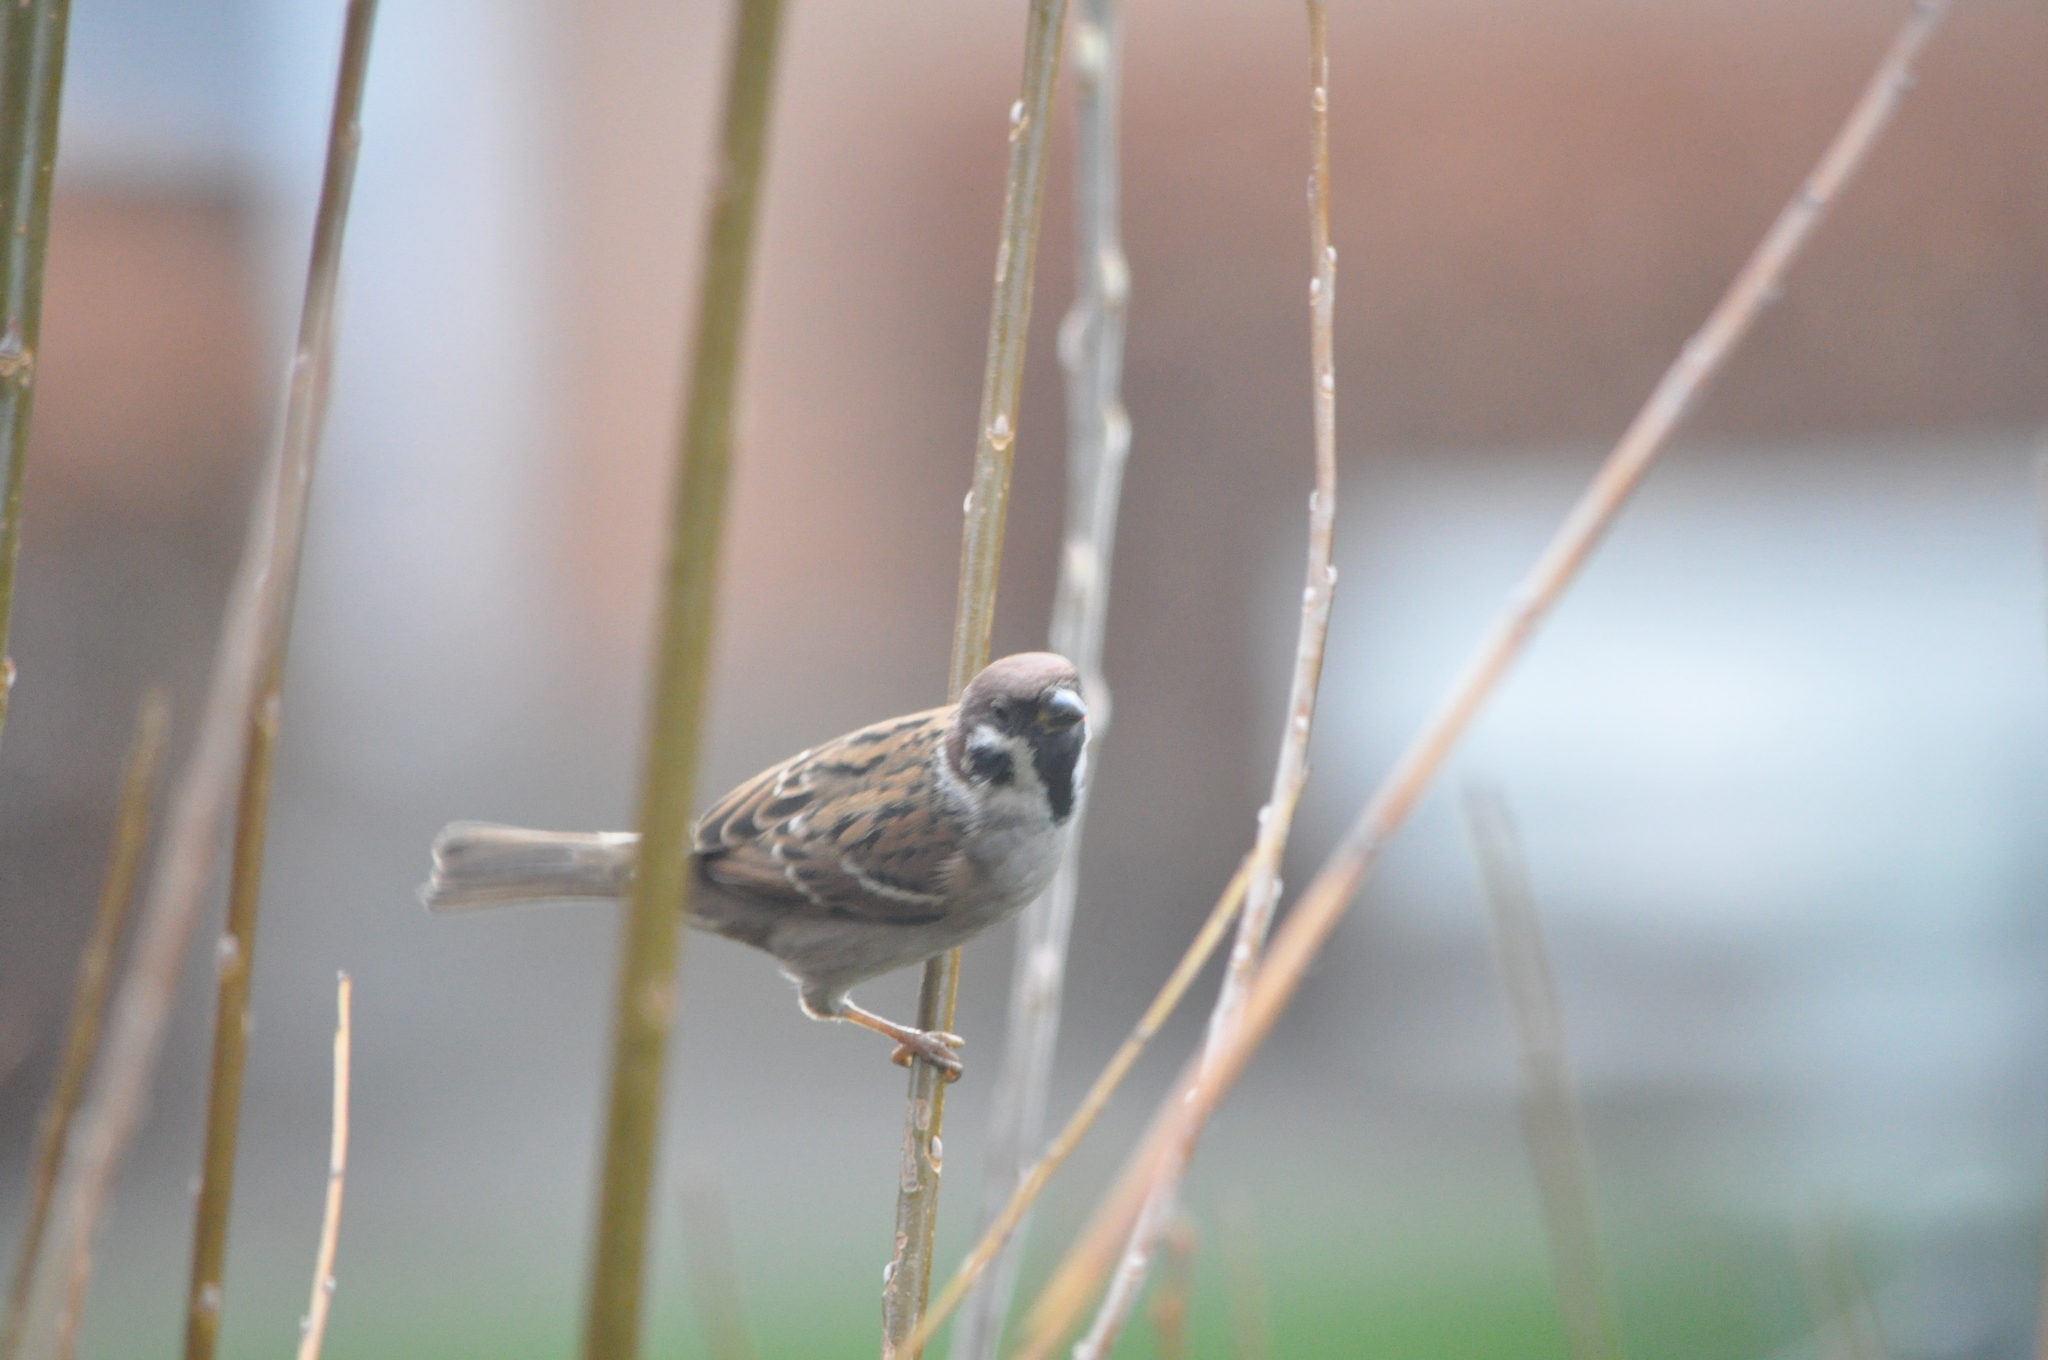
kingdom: Animalia
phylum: Chordata
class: Aves
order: Passeriformes
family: Passeridae
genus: Passer
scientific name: Passer montanus
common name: Eurasian tree sparrow
